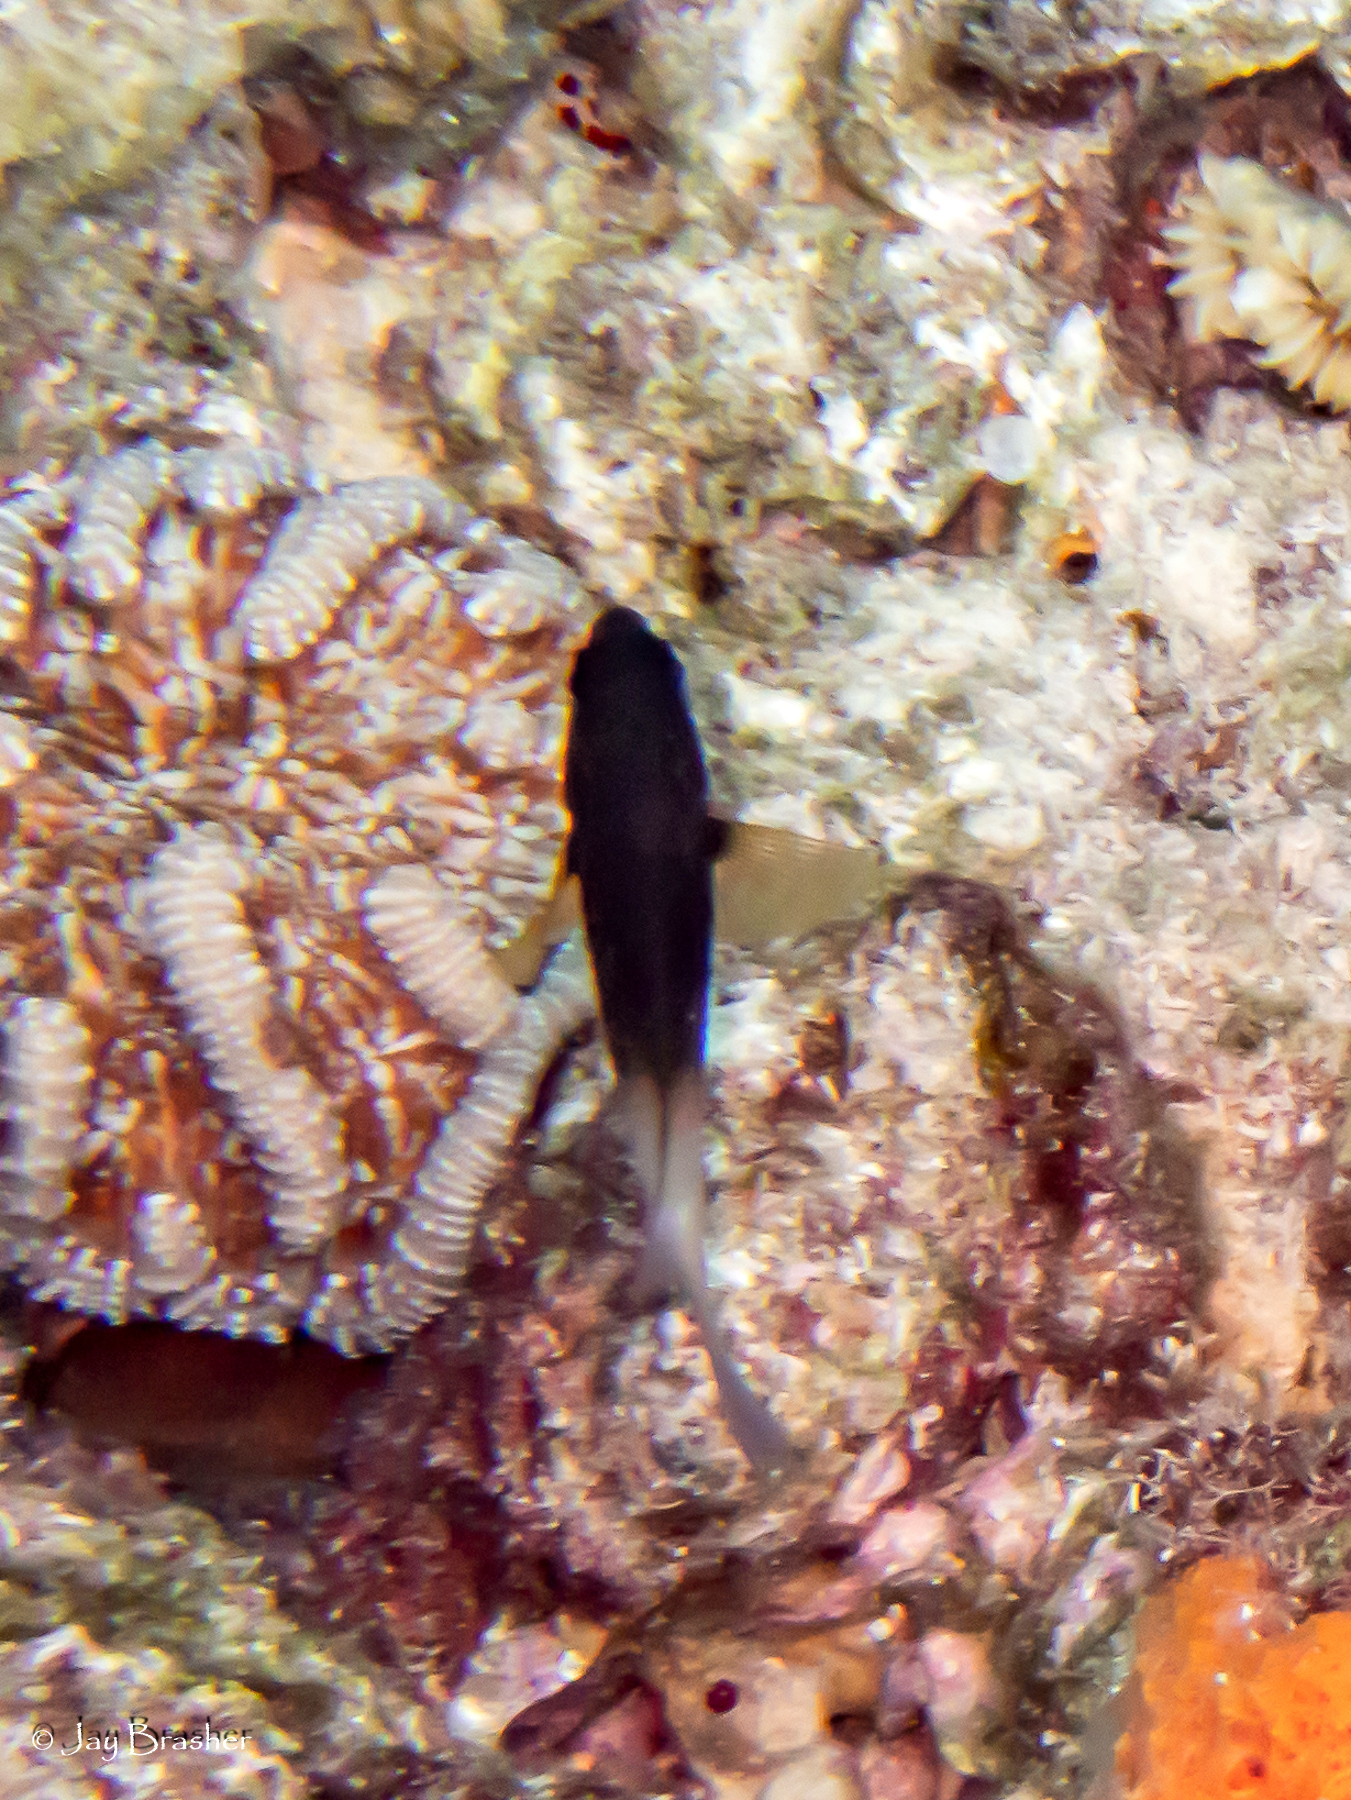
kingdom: Animalia
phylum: Chordata
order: Perciformes
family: Pomacentridae
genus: Stegastes
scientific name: Stegastes partitus
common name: Bicolor damselfish
